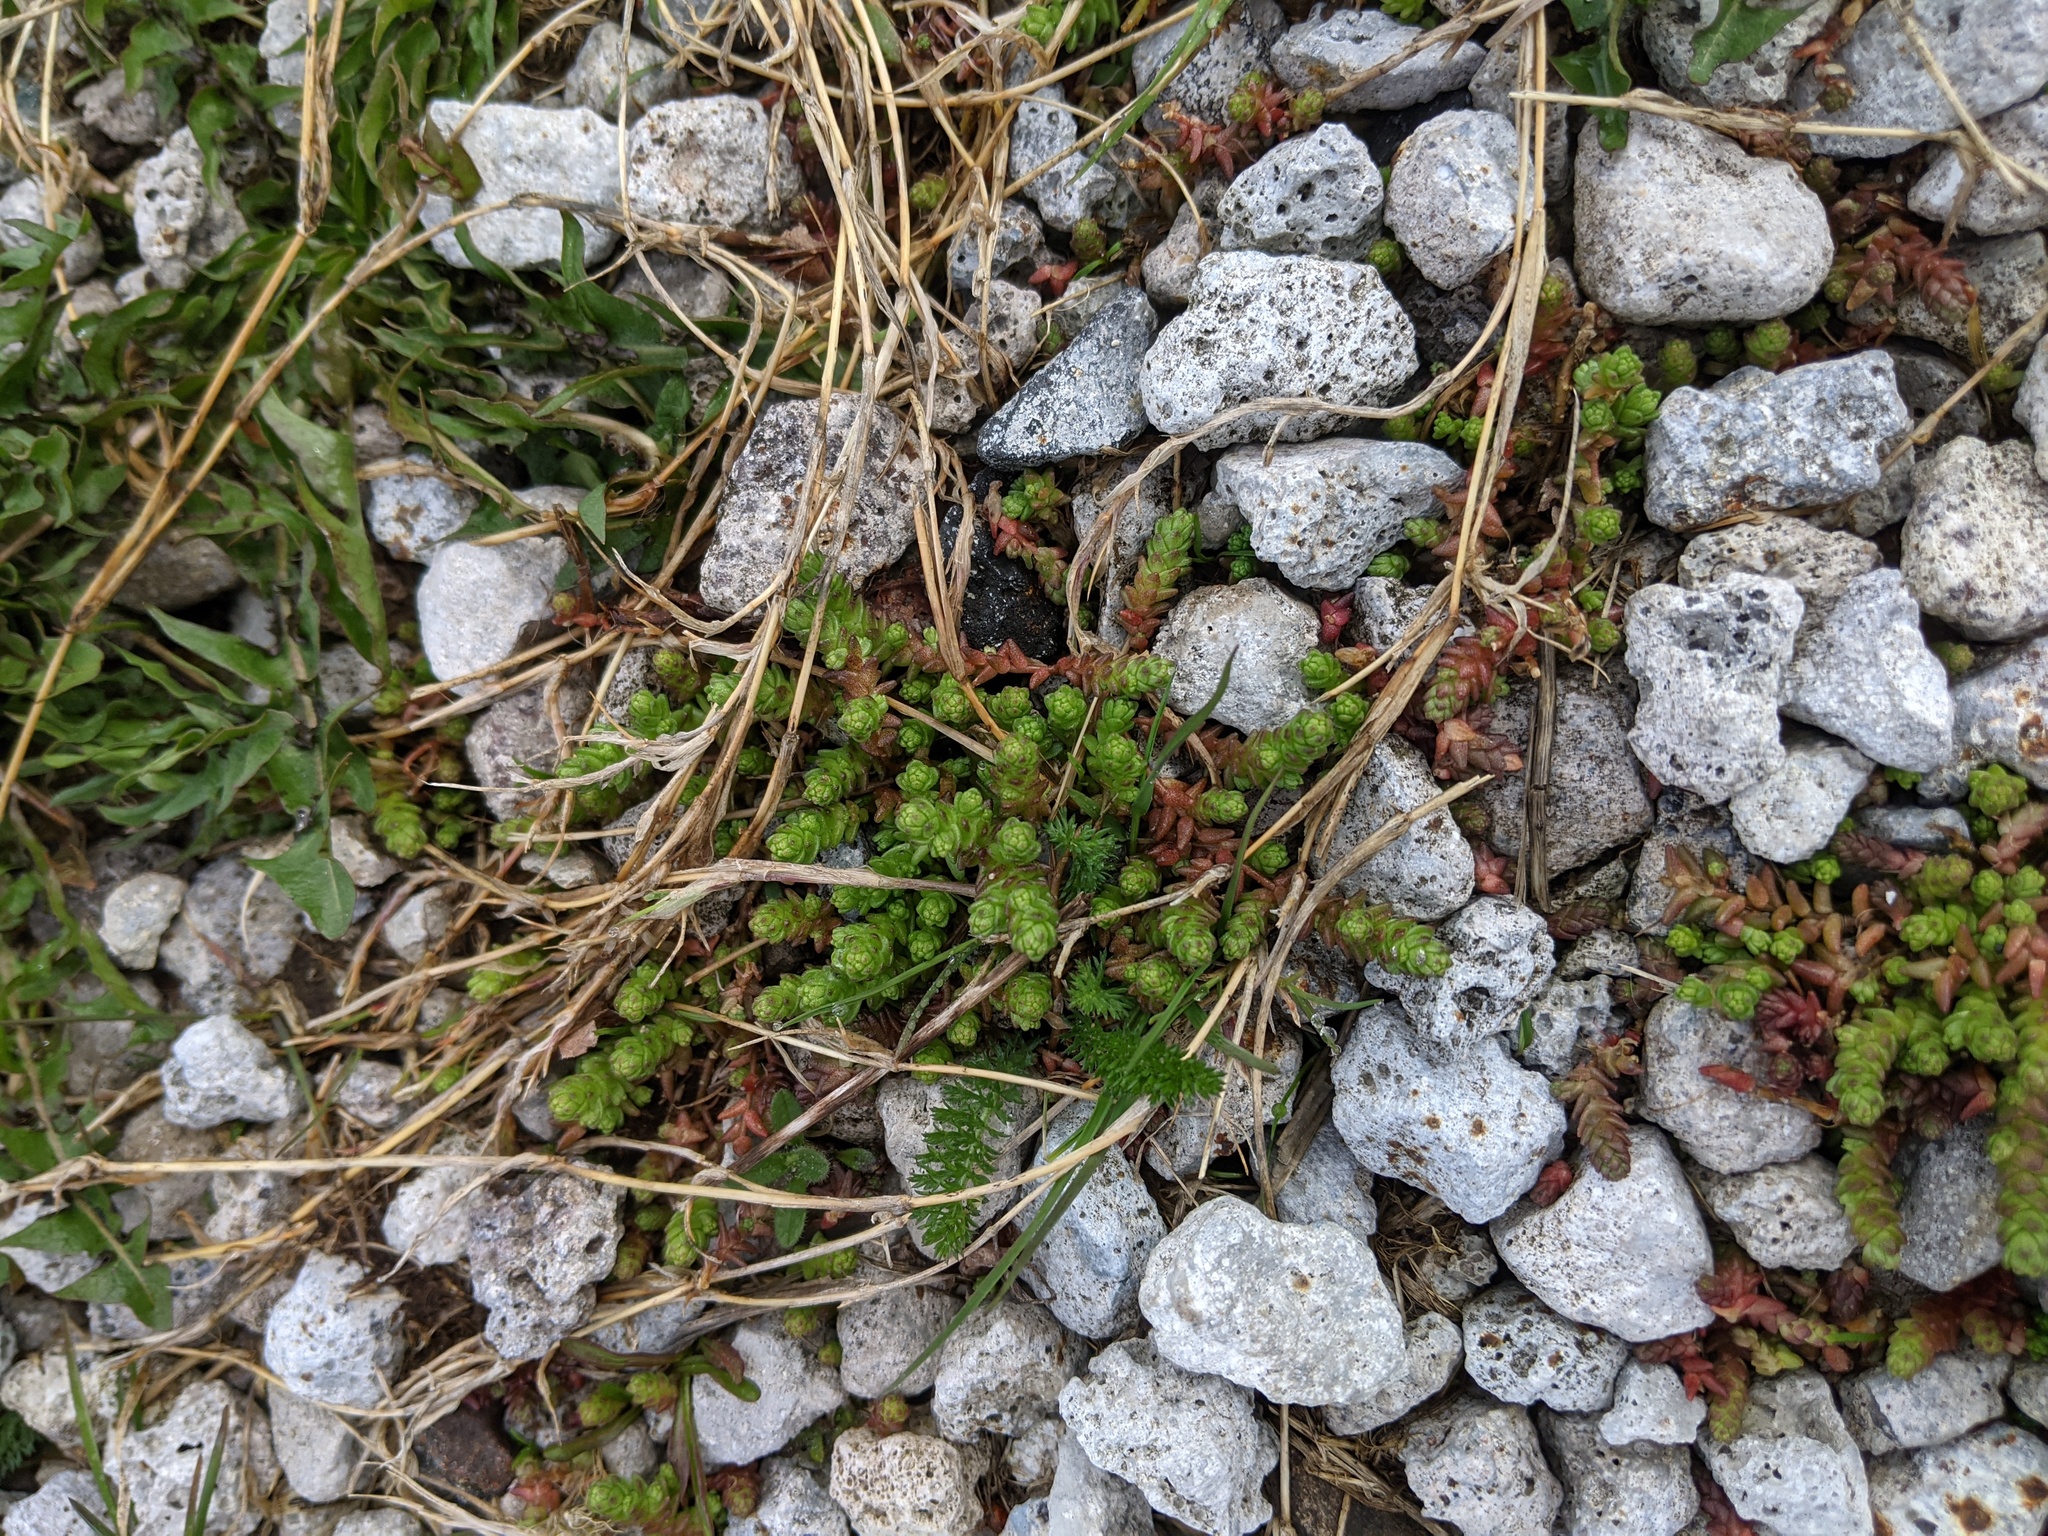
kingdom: Plantae
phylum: Tracheophyta
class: Magnoliopsida
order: Saxifragales
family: Crassulaceae
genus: Sedum
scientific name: Sedum acre
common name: Biting stonecrop
